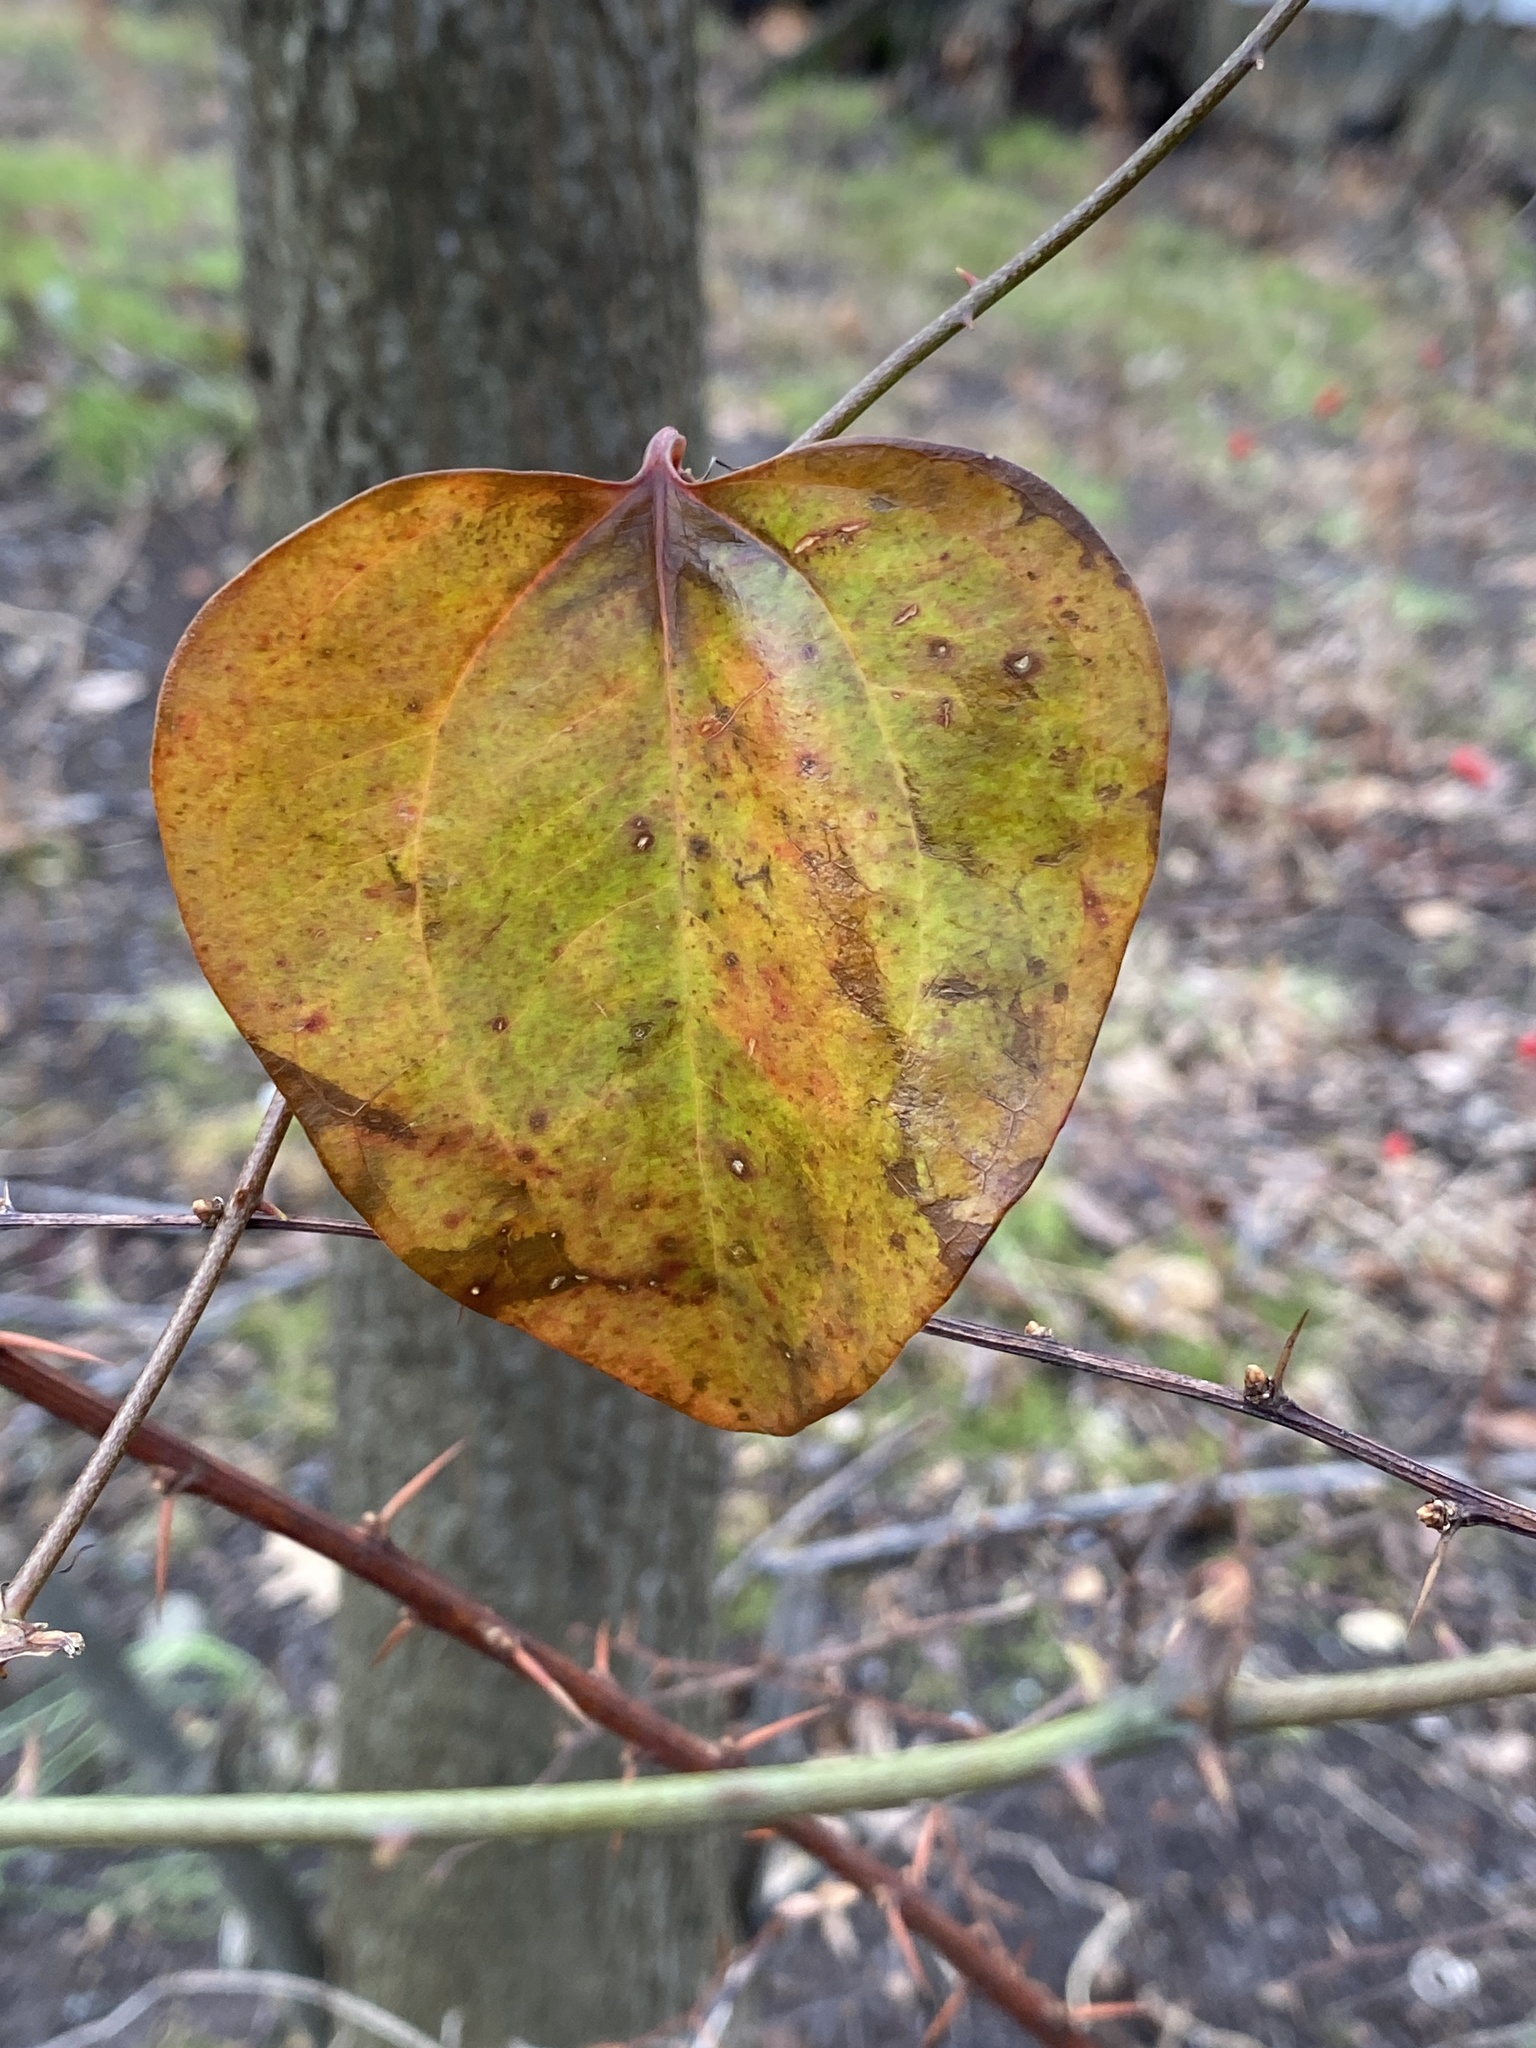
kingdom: Plantae
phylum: Tracheophyta
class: Liliopsida
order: Liliales
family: Smilacaceae
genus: Smilax
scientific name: Smilax rotundifolia
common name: Bullbriar
